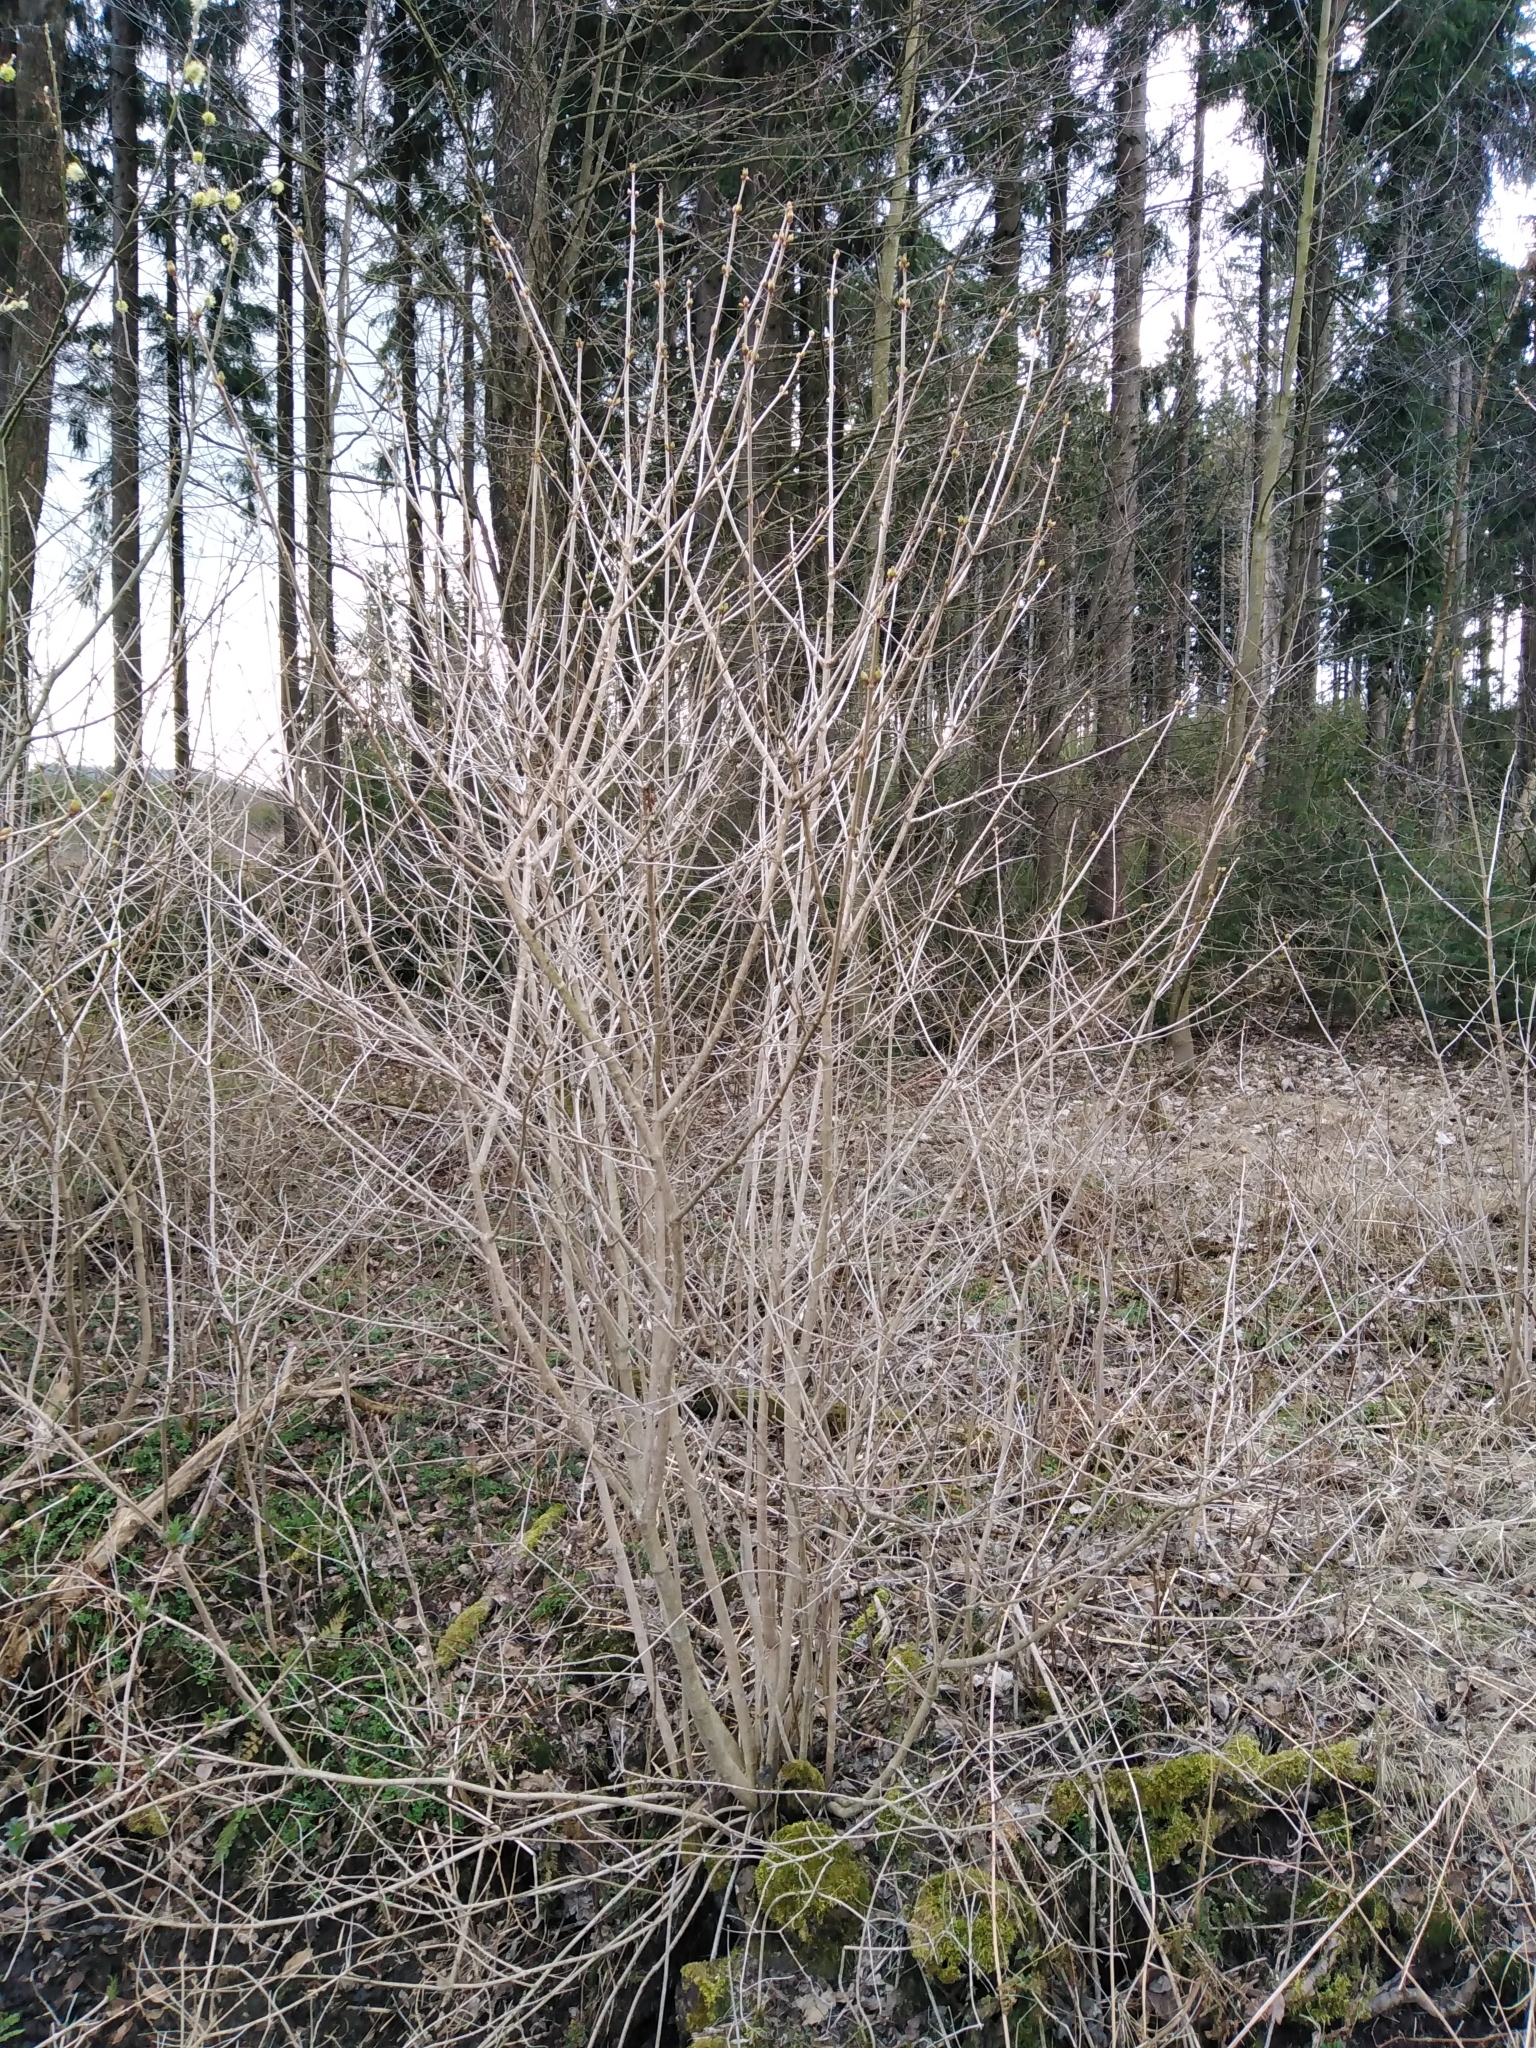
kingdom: Plantae
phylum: Tracheophyta
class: Magnoliopsida
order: Dipsacales
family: Viburnaceae
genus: Viburnum
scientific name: Viburnum opulus
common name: Guelder-rose
